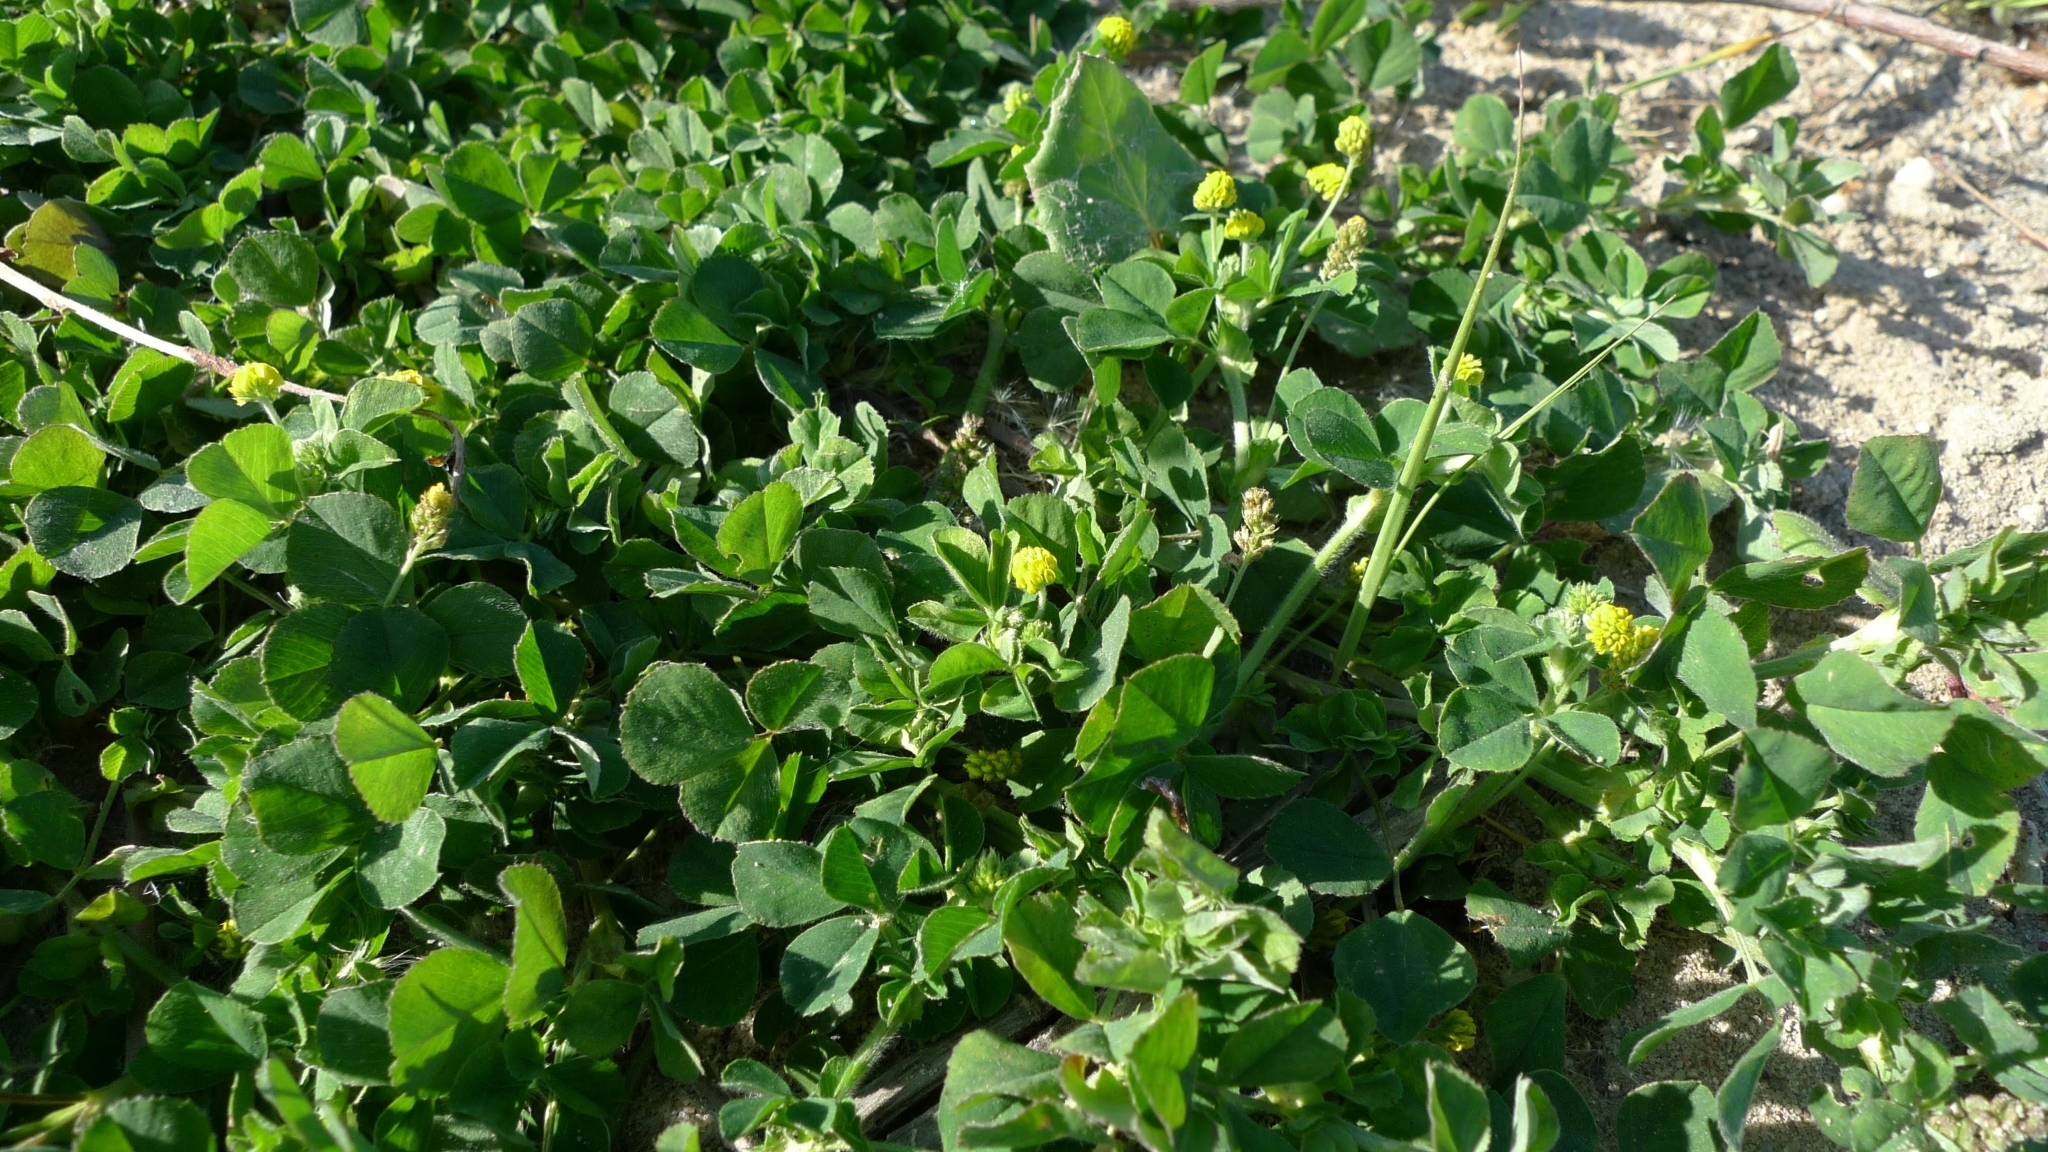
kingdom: Plantae
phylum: Tracheophyta
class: Magnoliopsida
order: Fabales
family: Fabaceae
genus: Medicago
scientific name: Medicago lupulina
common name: Black medick
